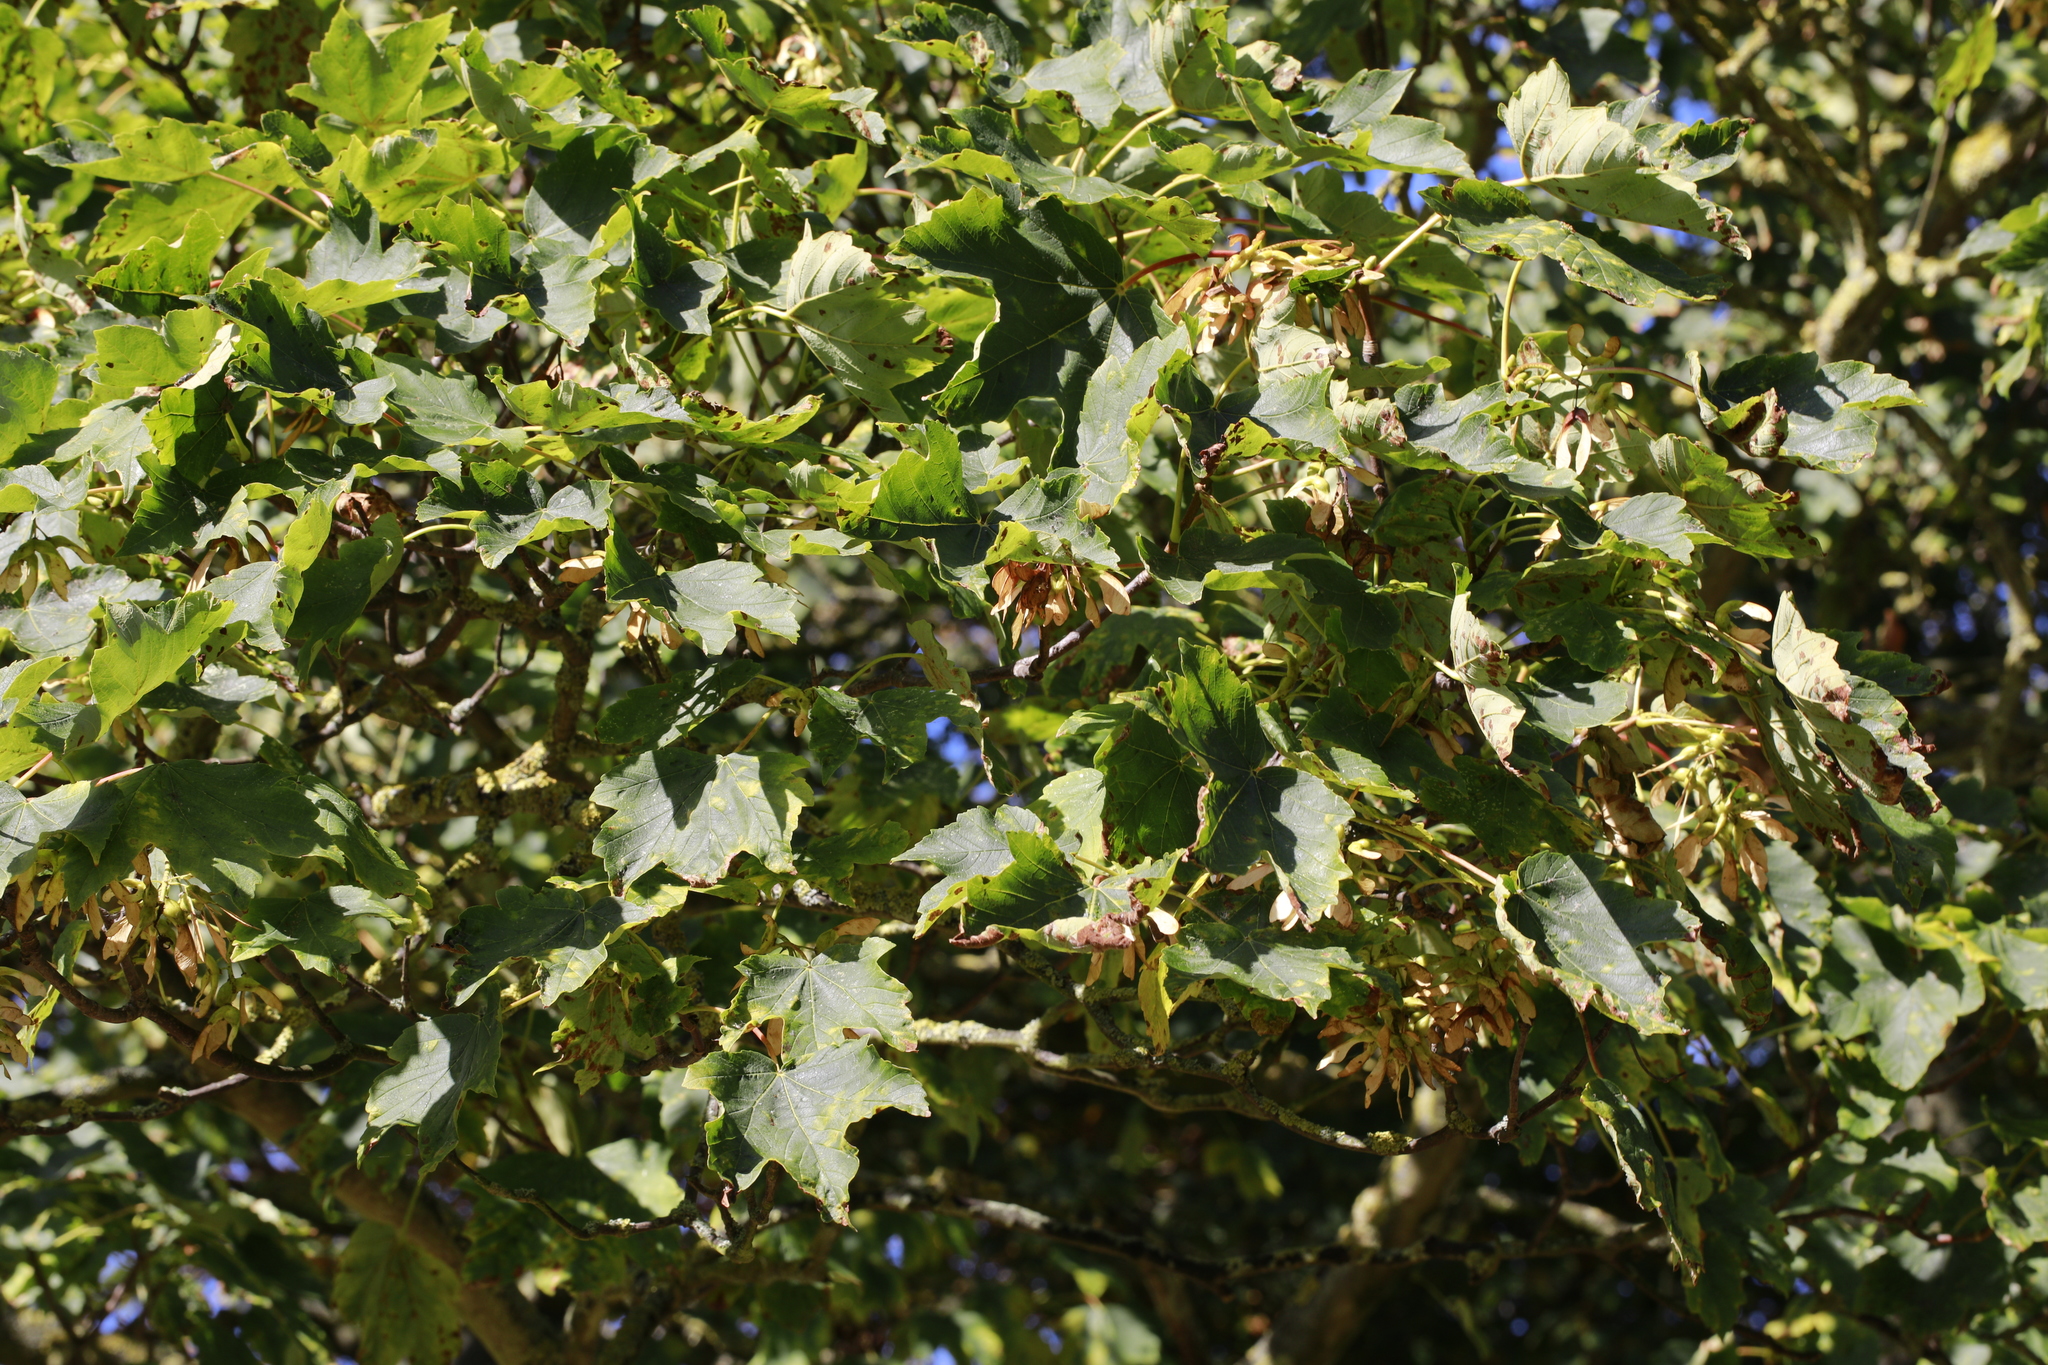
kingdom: Plantae
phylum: Tracheophyta
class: Magnoliopsida
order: Sapindales
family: Sapindaceae
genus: Acer
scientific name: Acer pseudoplatanus
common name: Sycamore
